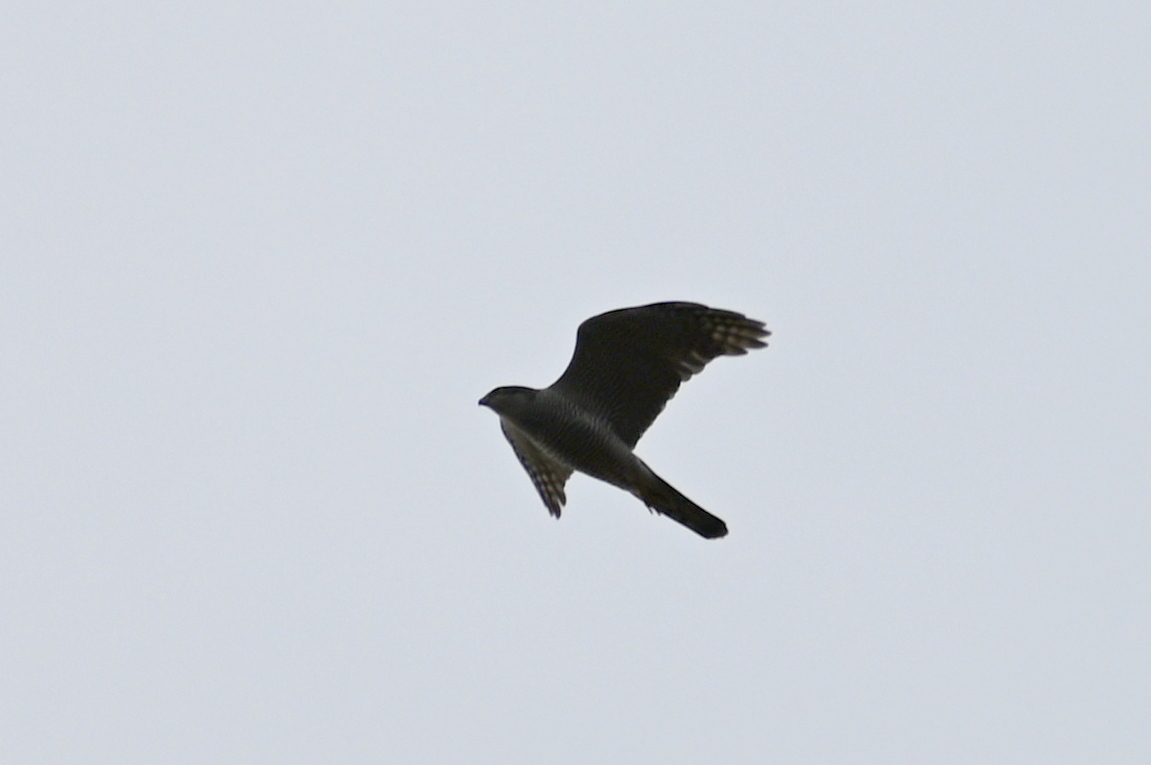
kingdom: Animalia
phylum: Chordata
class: Aves
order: Accipitriformes
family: Accipitridae
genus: Accipiter
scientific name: Accipiter gentilis
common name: Northern goshawk
